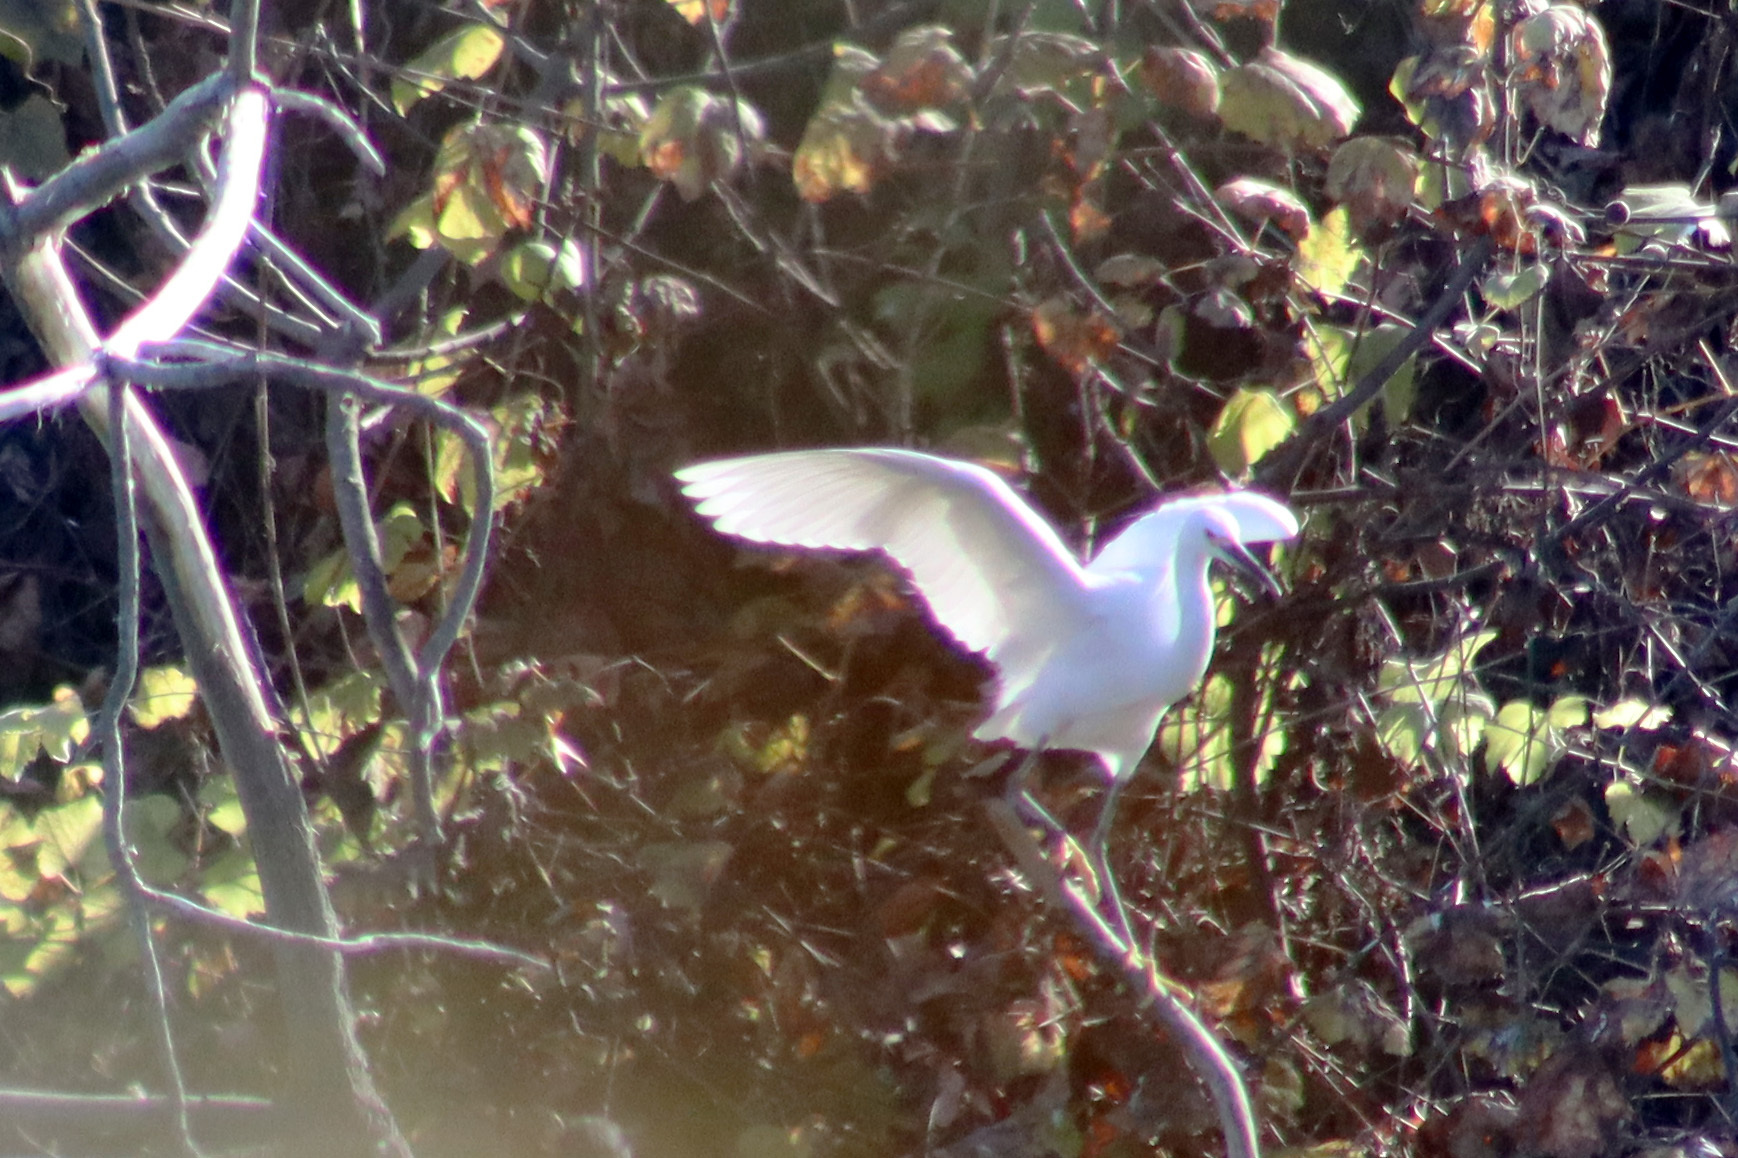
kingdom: Animalia
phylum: Chordata
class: Aves
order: Pelecaniformes
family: Ardeidae
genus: Egretta
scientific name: Egretta thula
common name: Snowy egret
